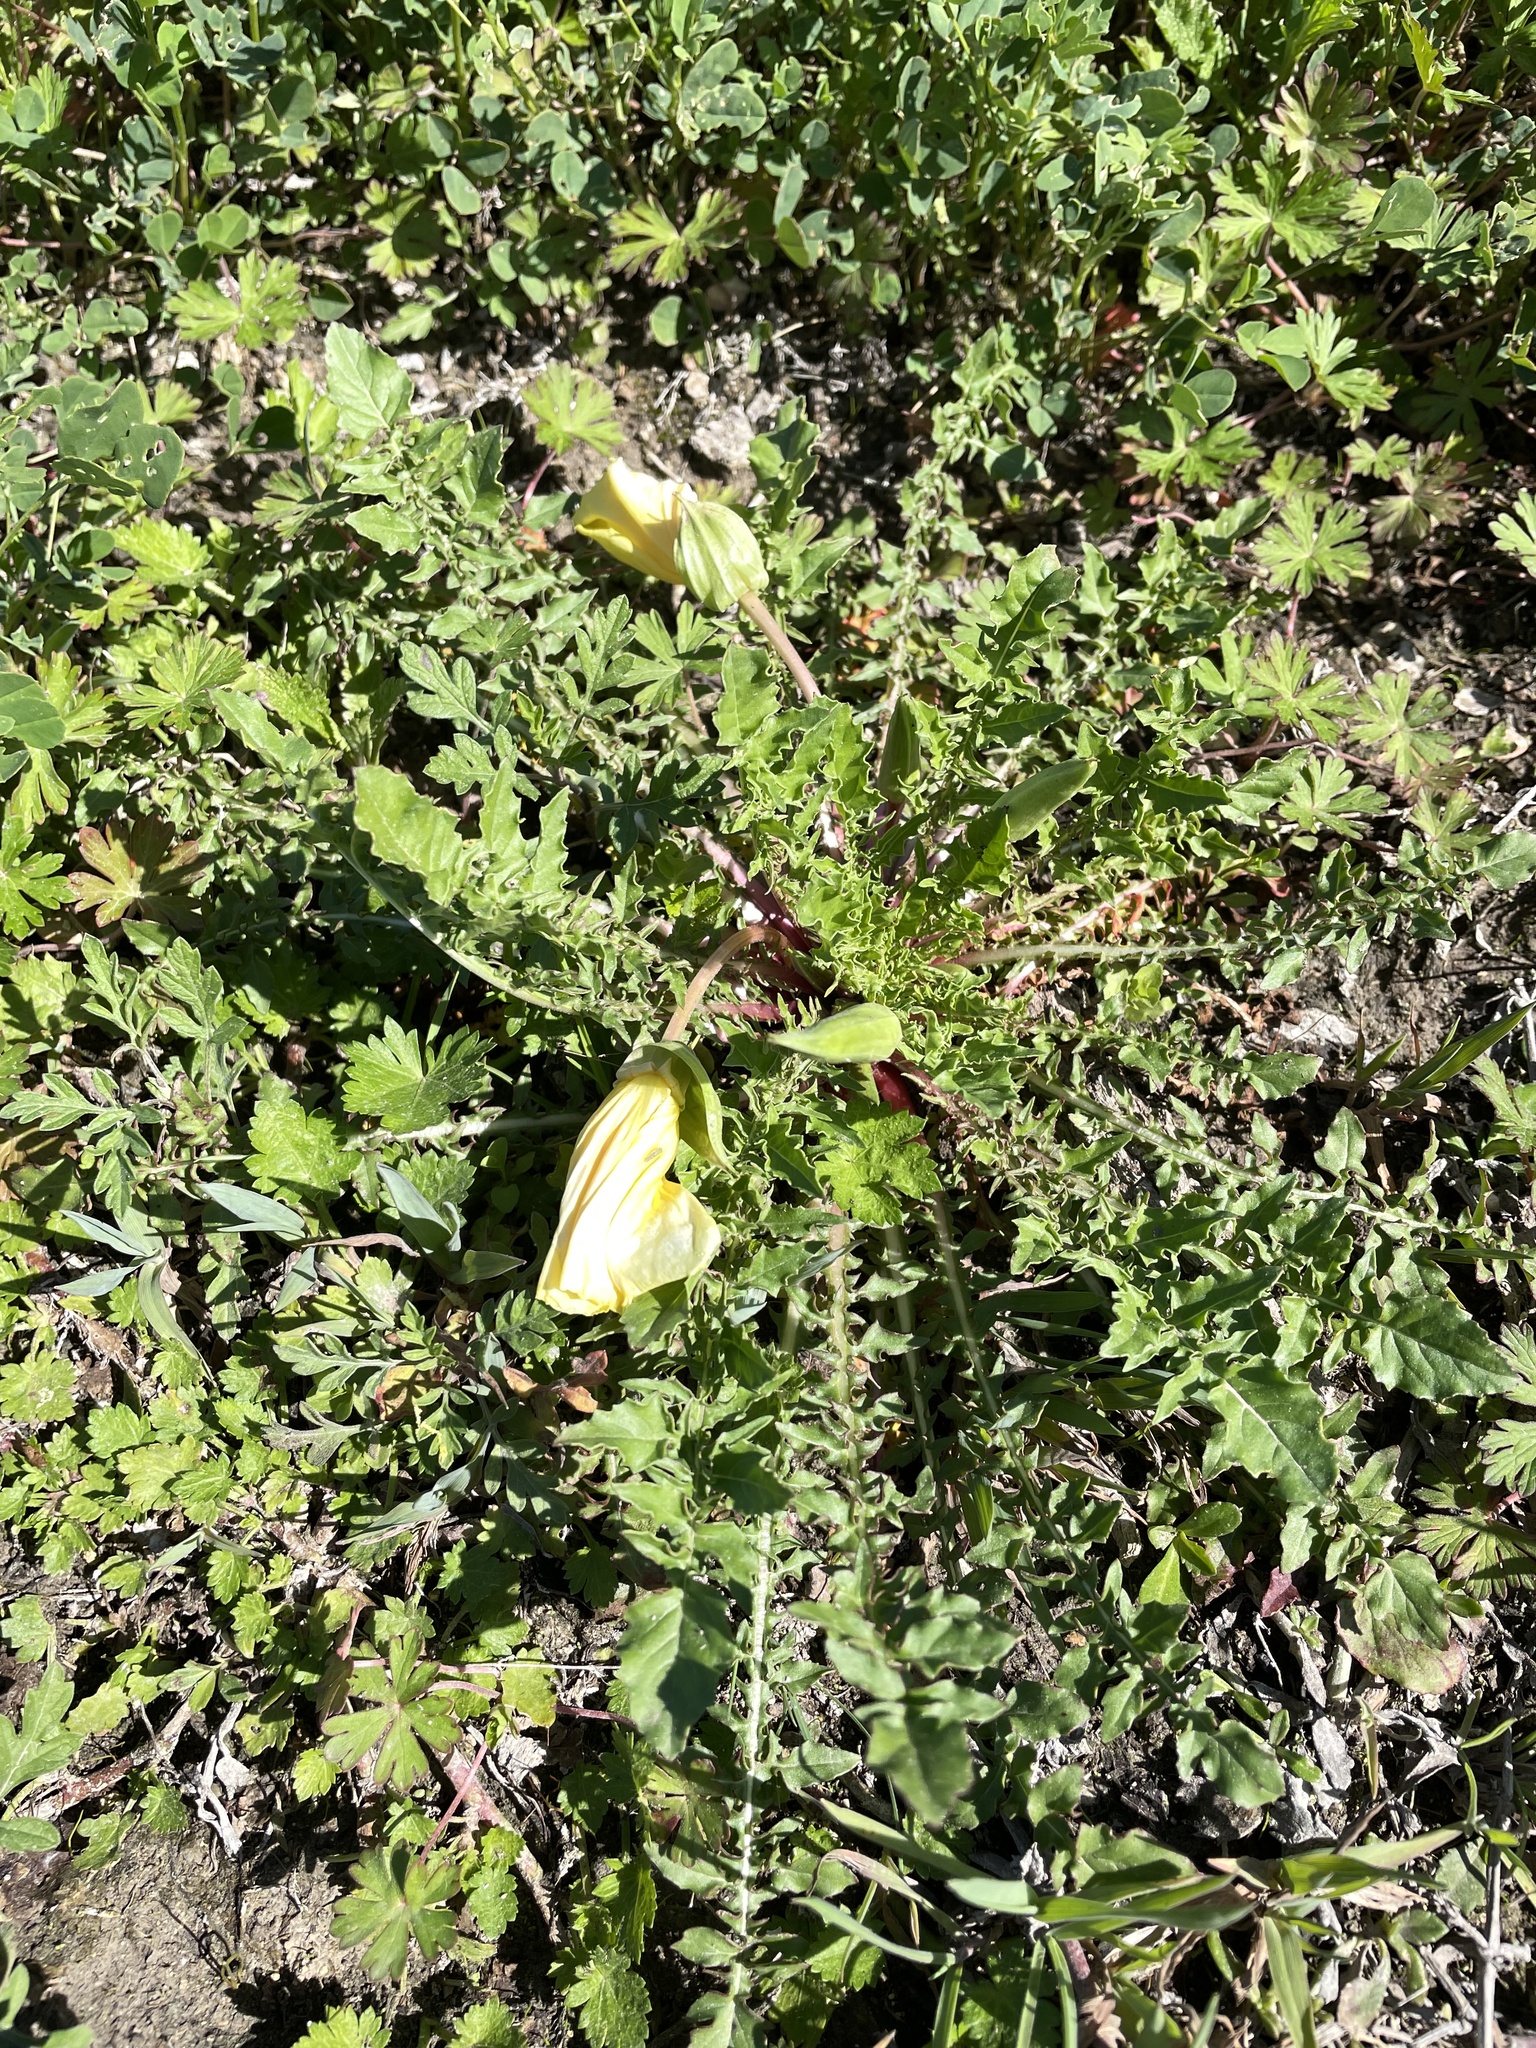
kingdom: Plantae
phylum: Tracheophyta
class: Magnoliopsida
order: Myrtales
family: Onagraceae
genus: Oenothera
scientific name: Oenothera triloba
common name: Sessile evening-primrose
